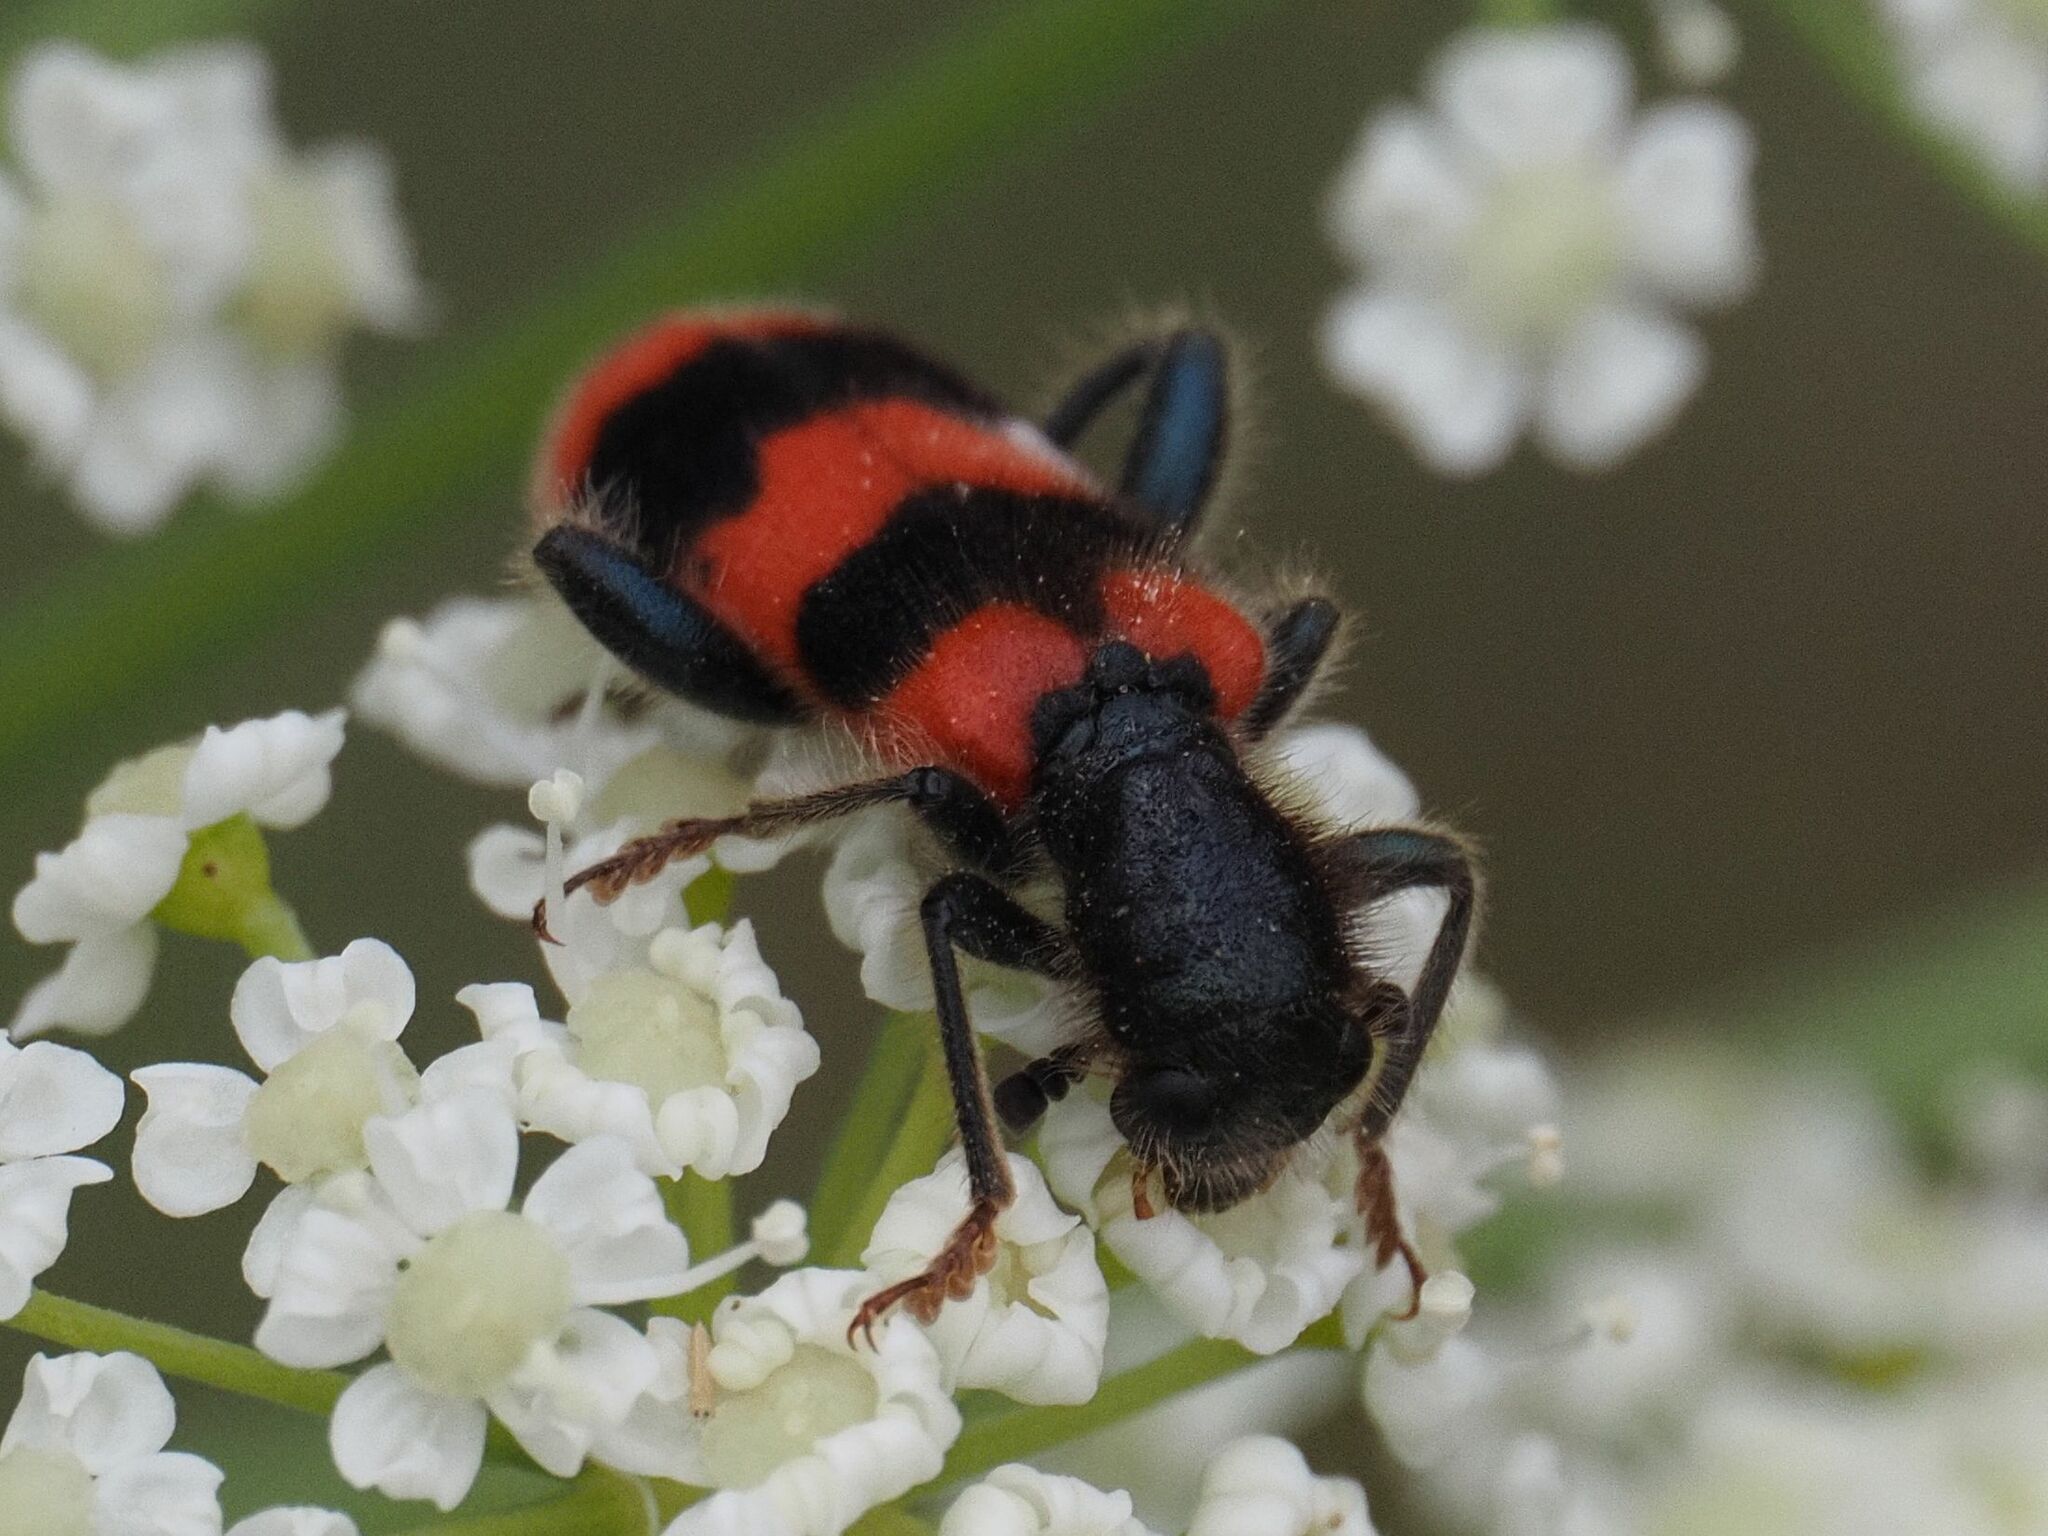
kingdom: Animalia
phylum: Arthropoda
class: Insecta
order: Coleoptera
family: Cleridae
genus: Trichodes
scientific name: Trichodes apiarius
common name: Bee-eating beetle
